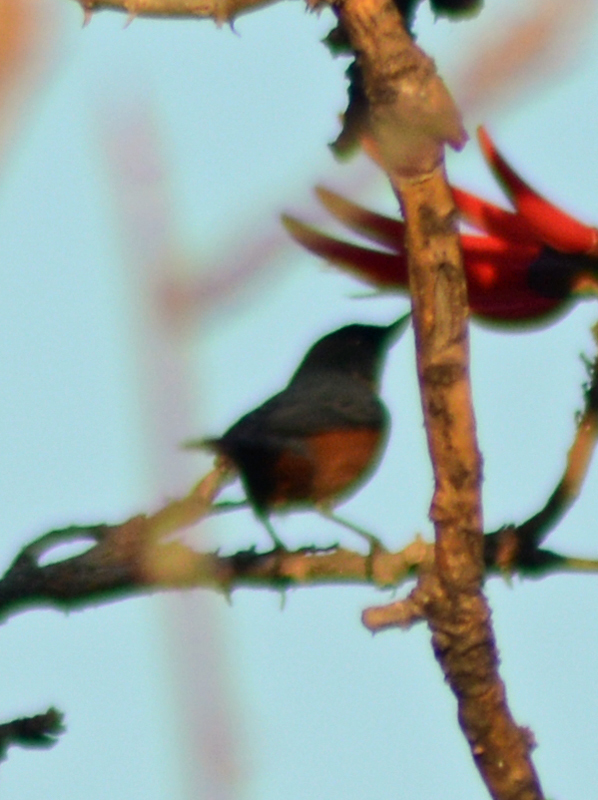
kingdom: Animalia
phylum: Chordata
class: Aves
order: Passeriformes
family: Thraupidae
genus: Diglossa
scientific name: Diglossa baritula
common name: Cinnamon-bellied flowerpiercer
